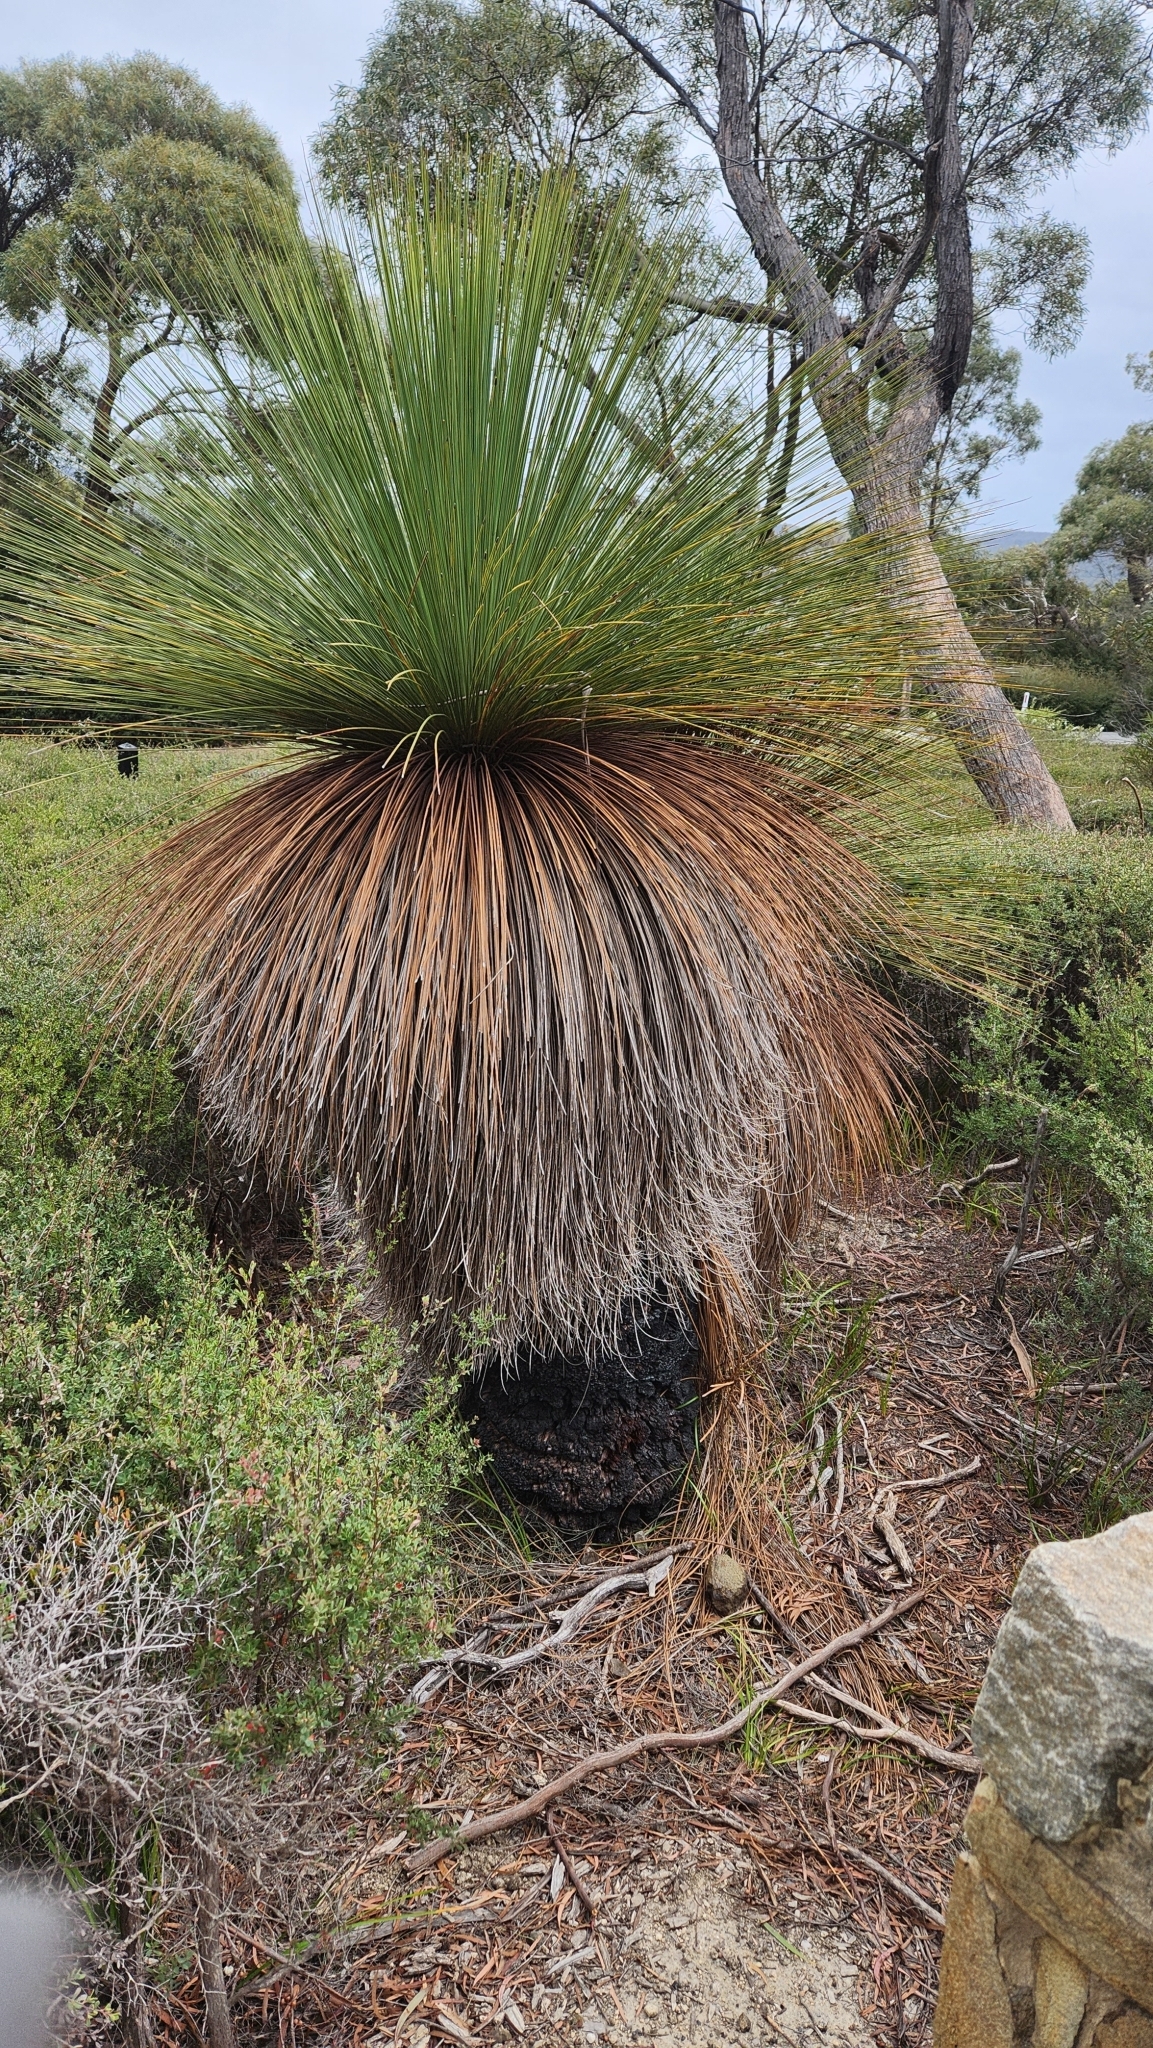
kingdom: Plantae
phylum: Tracheophyta
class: Liliopsida
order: Asparagales
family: Asphodelaceae
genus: Xanthorrhoea
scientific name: Xanthorrhoea australis
